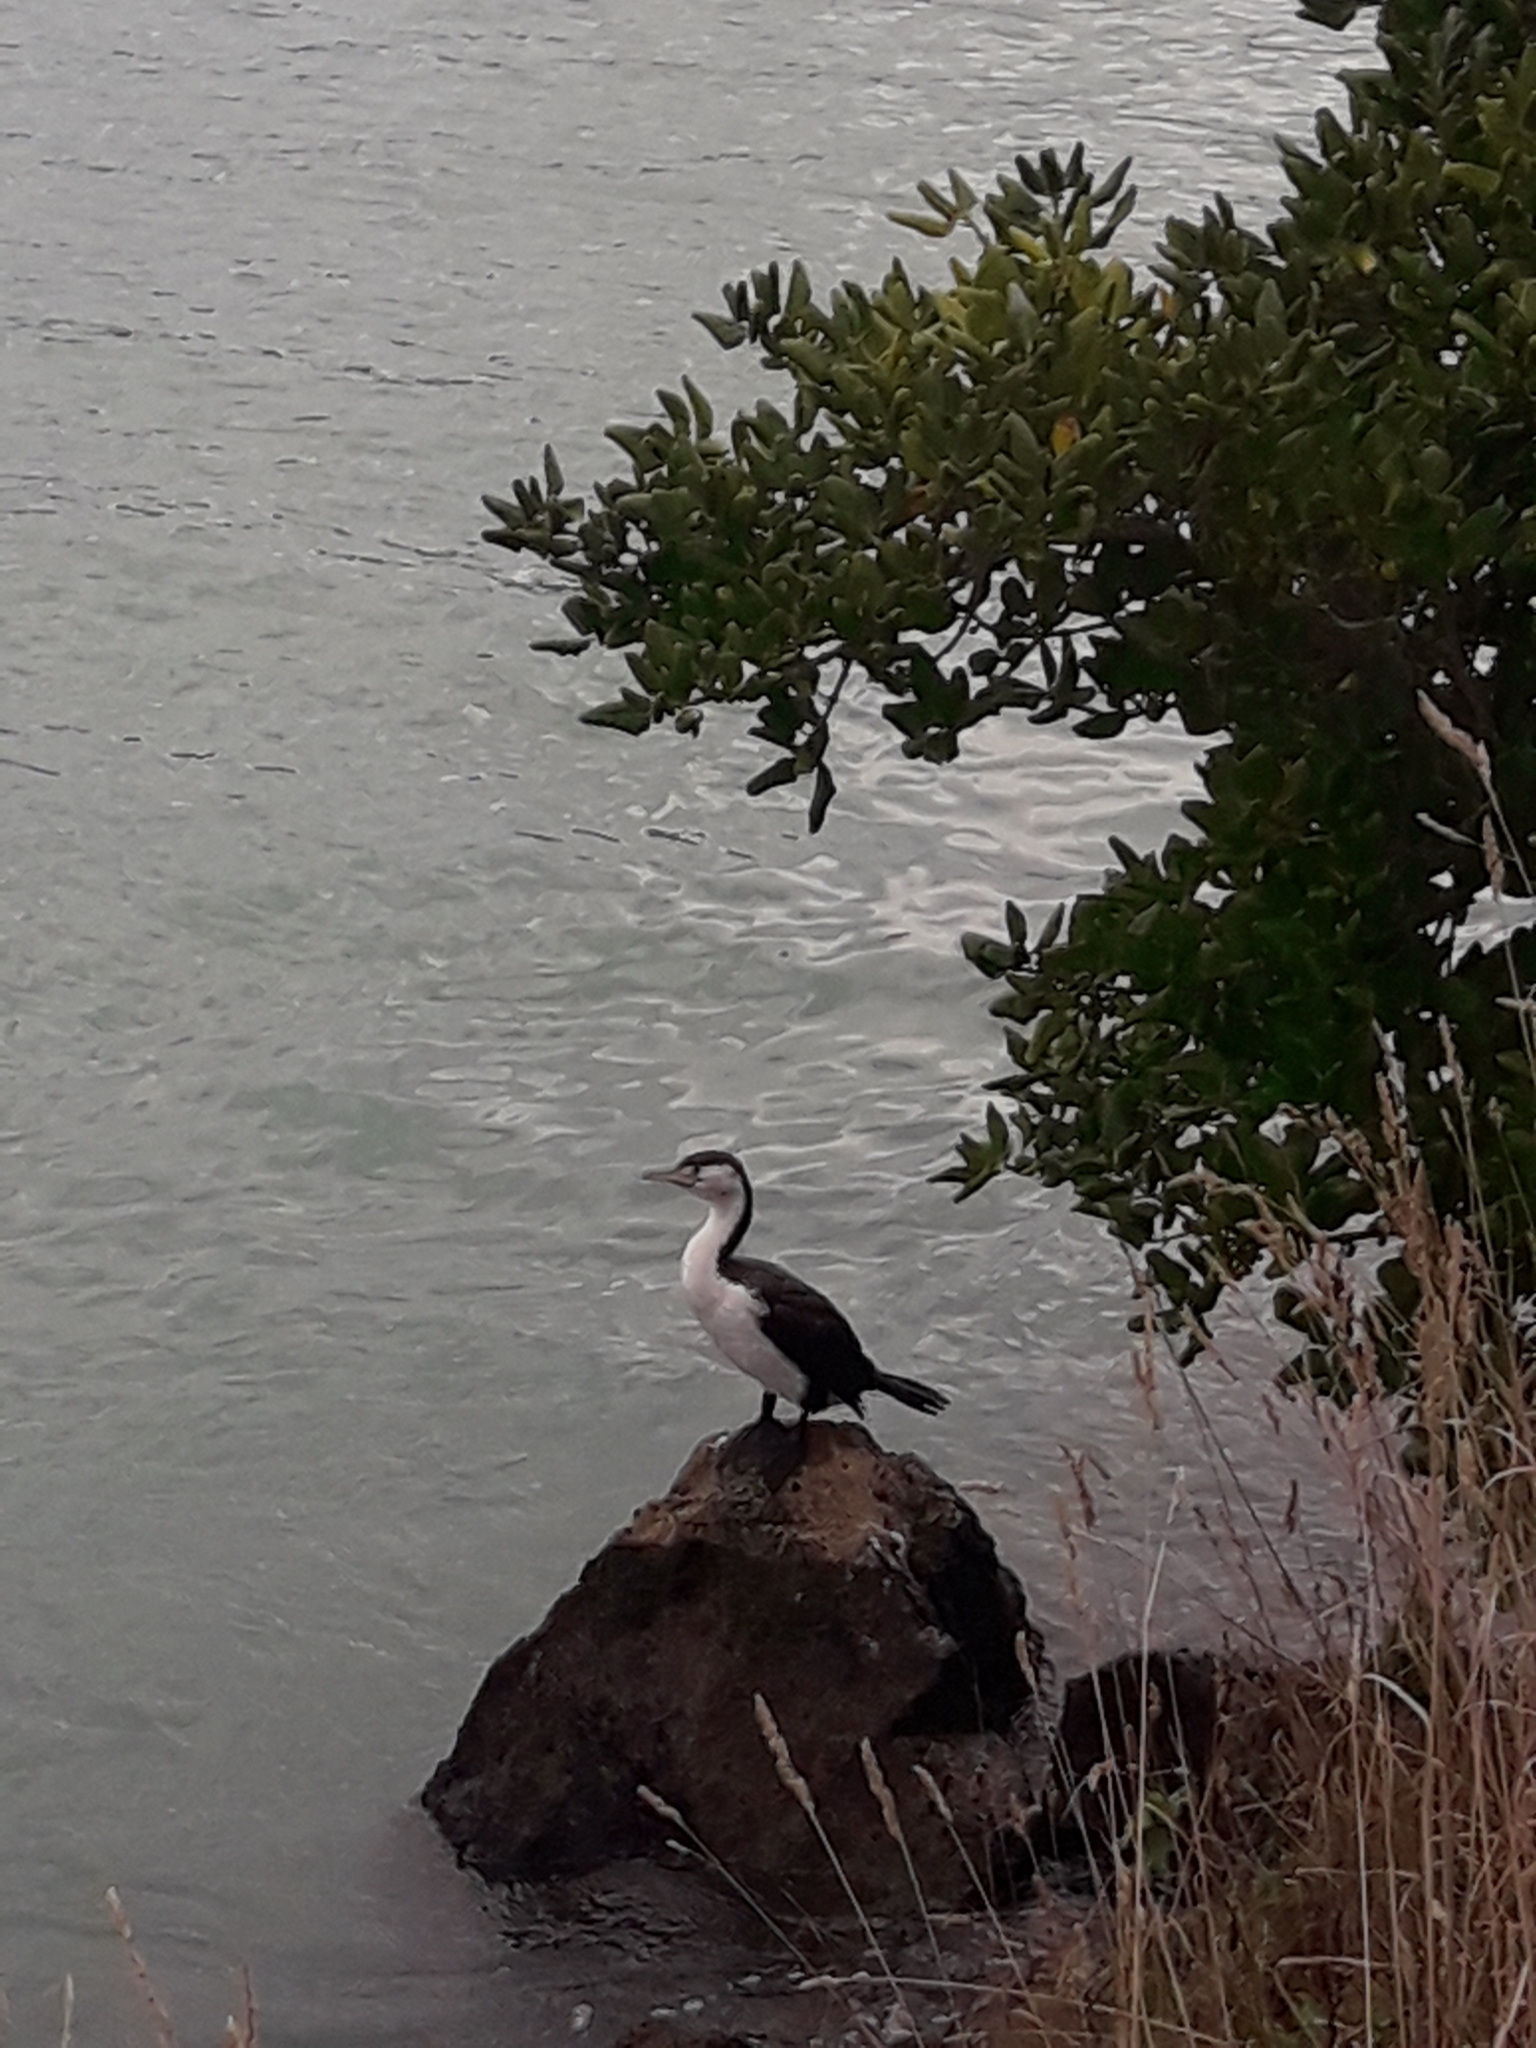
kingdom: Animalia
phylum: Chordata
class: Aves
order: Suliformes
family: Phalacrocoracidae
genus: Phalacrocorax
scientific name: Phalacrocorax varius
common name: Pied cormorant
